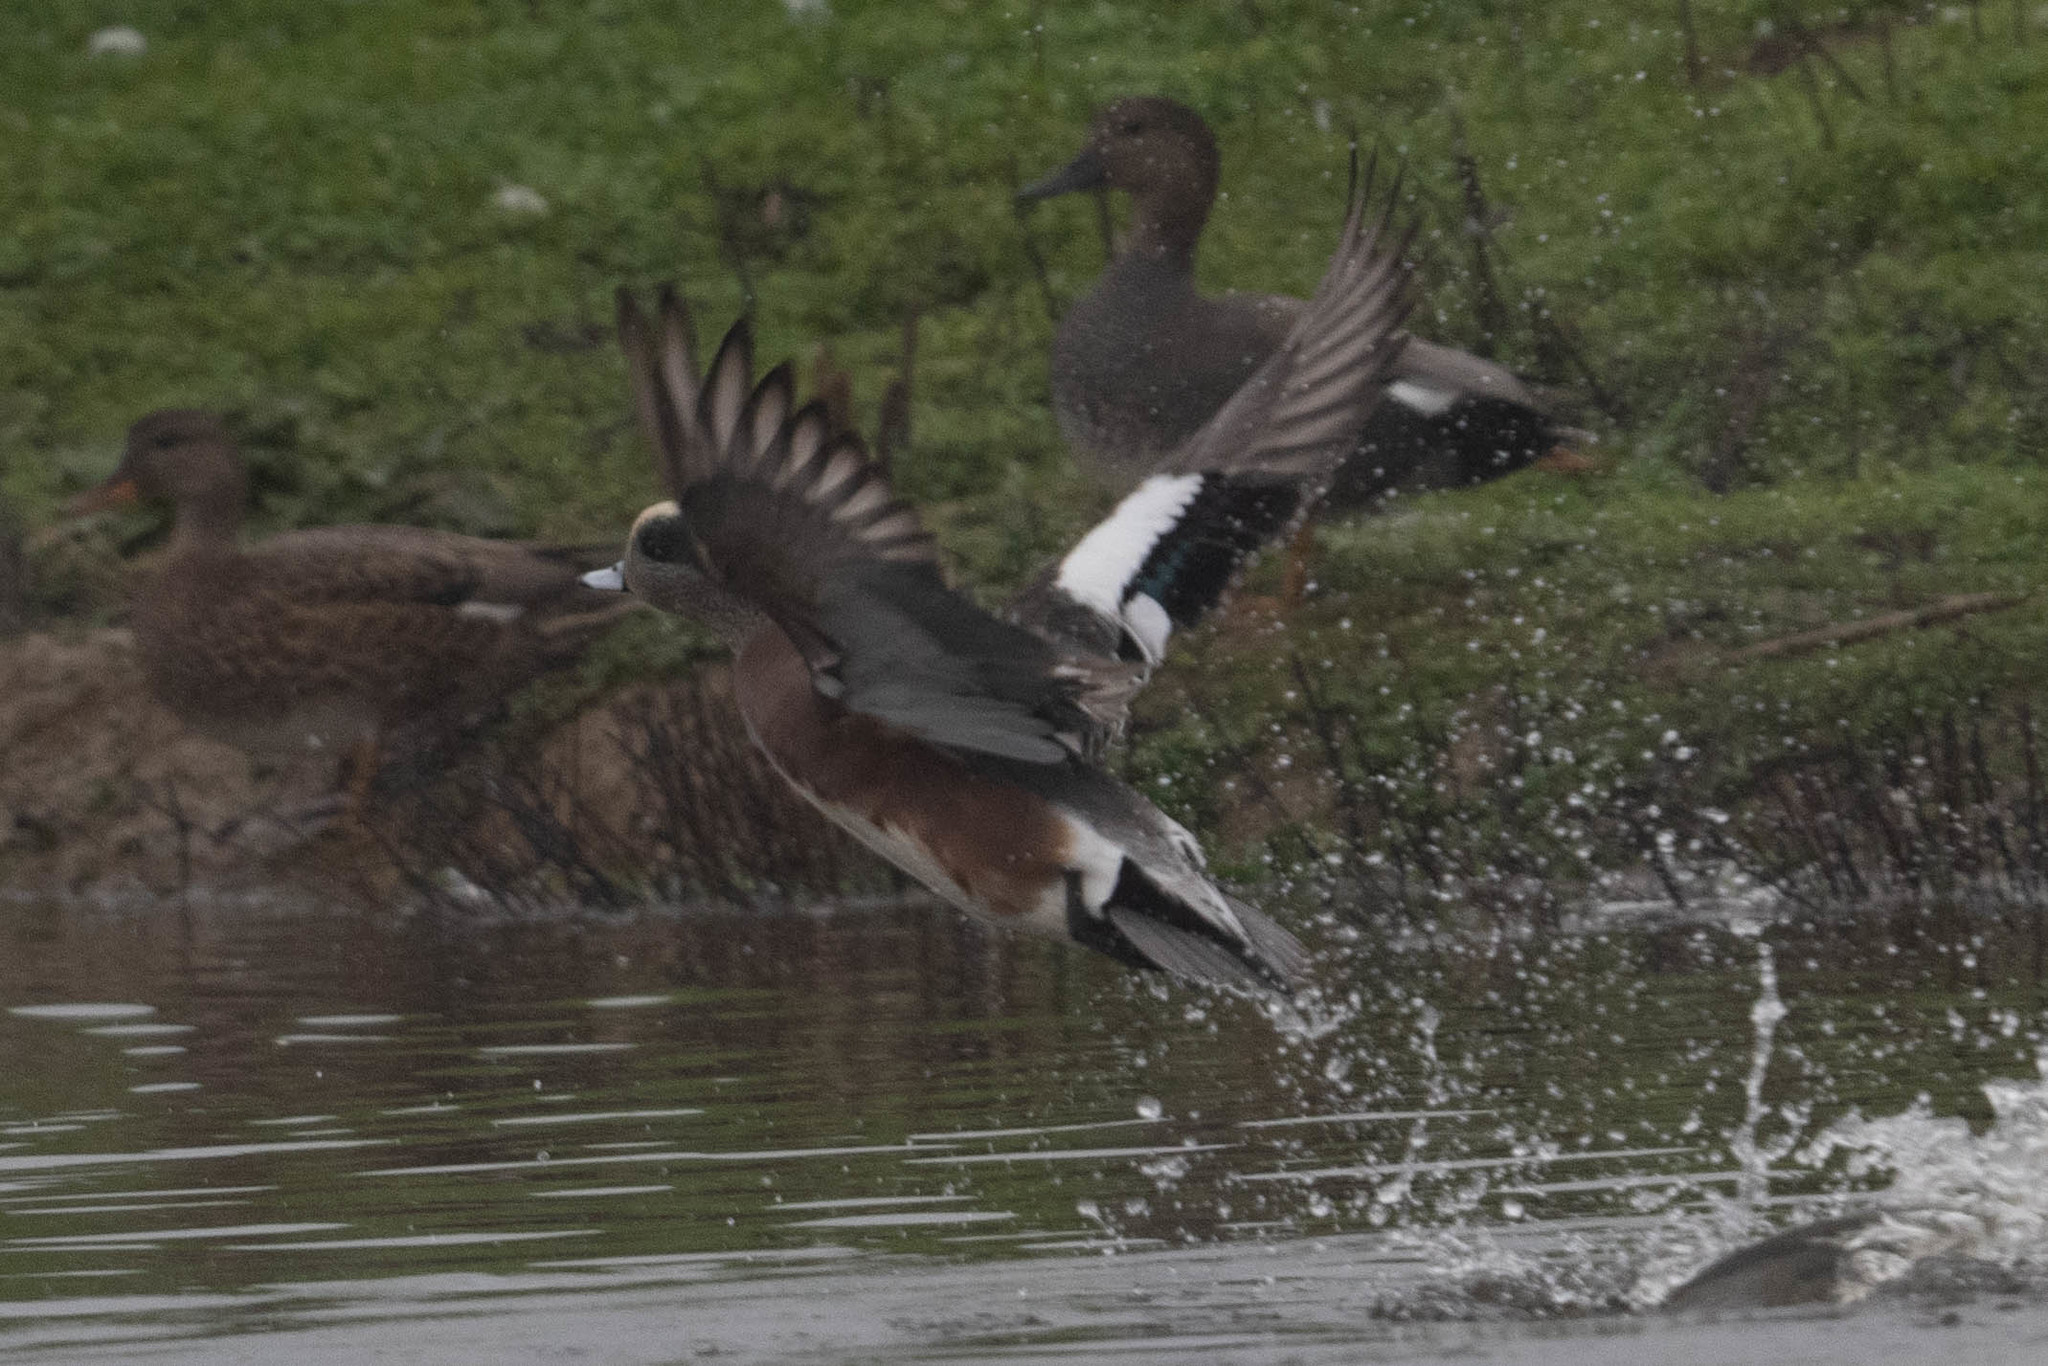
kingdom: Animalia
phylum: Chordata
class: Aves
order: Anseriformes
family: Anatidae
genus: Mareca
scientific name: Mareca americana
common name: American wigeon
